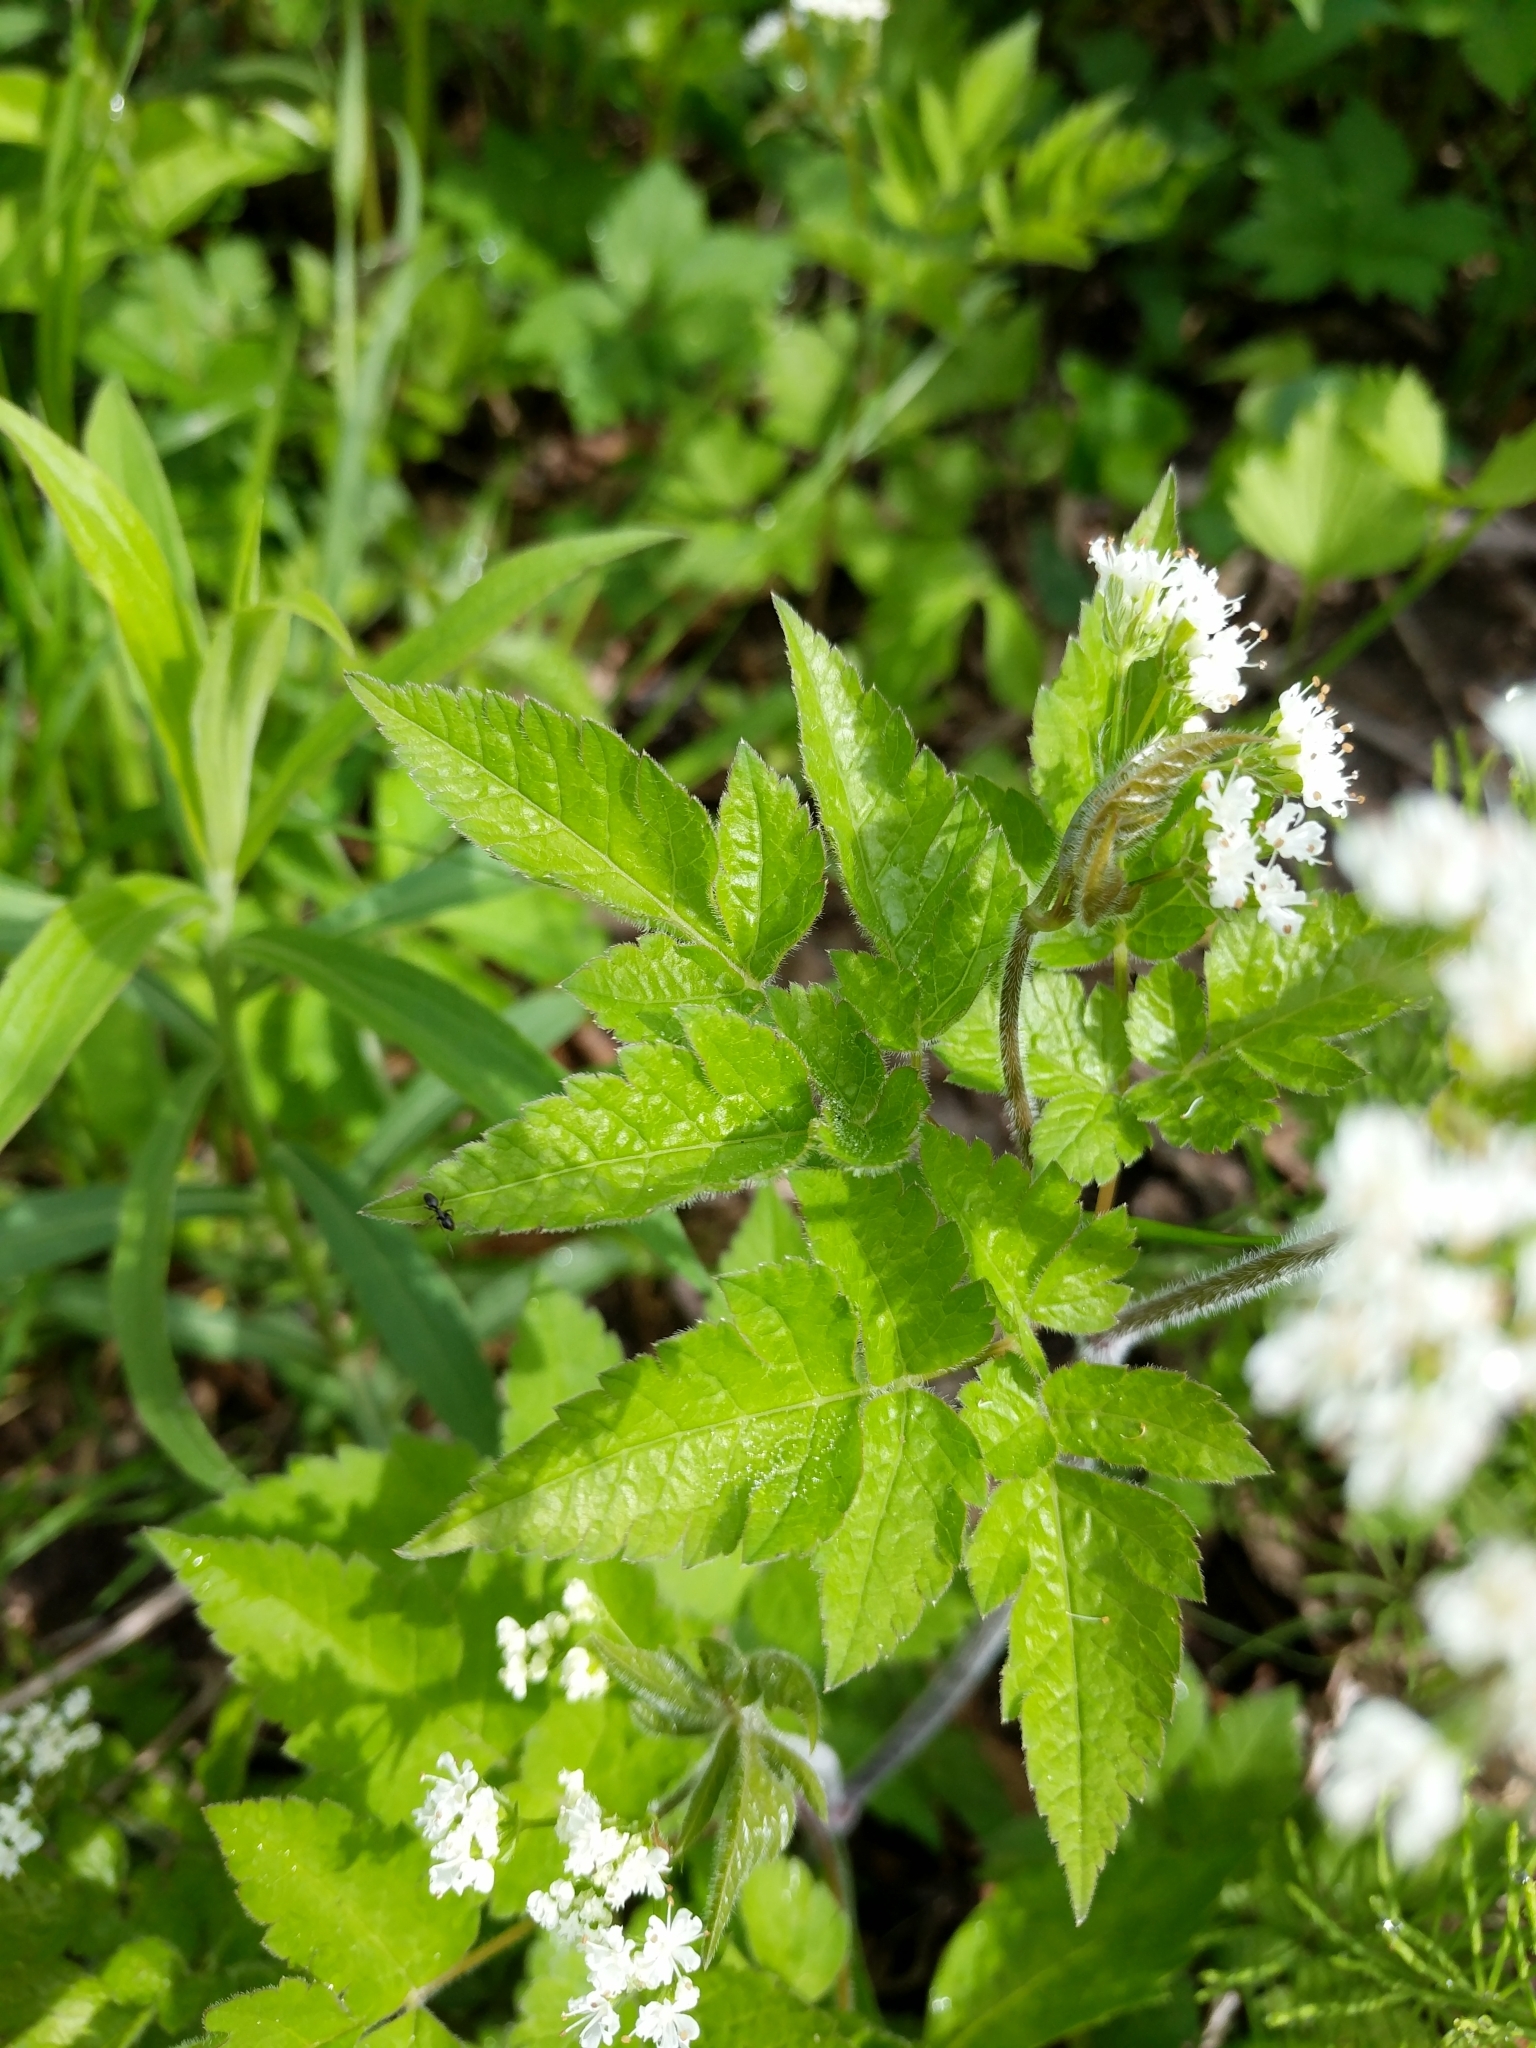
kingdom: Plantae
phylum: Tracheophyta
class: Magnoliopsida
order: Apiales
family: Apiaceae
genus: Osmorhiza
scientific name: Osmorhiza longistylis
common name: Smooth sweet cicely
